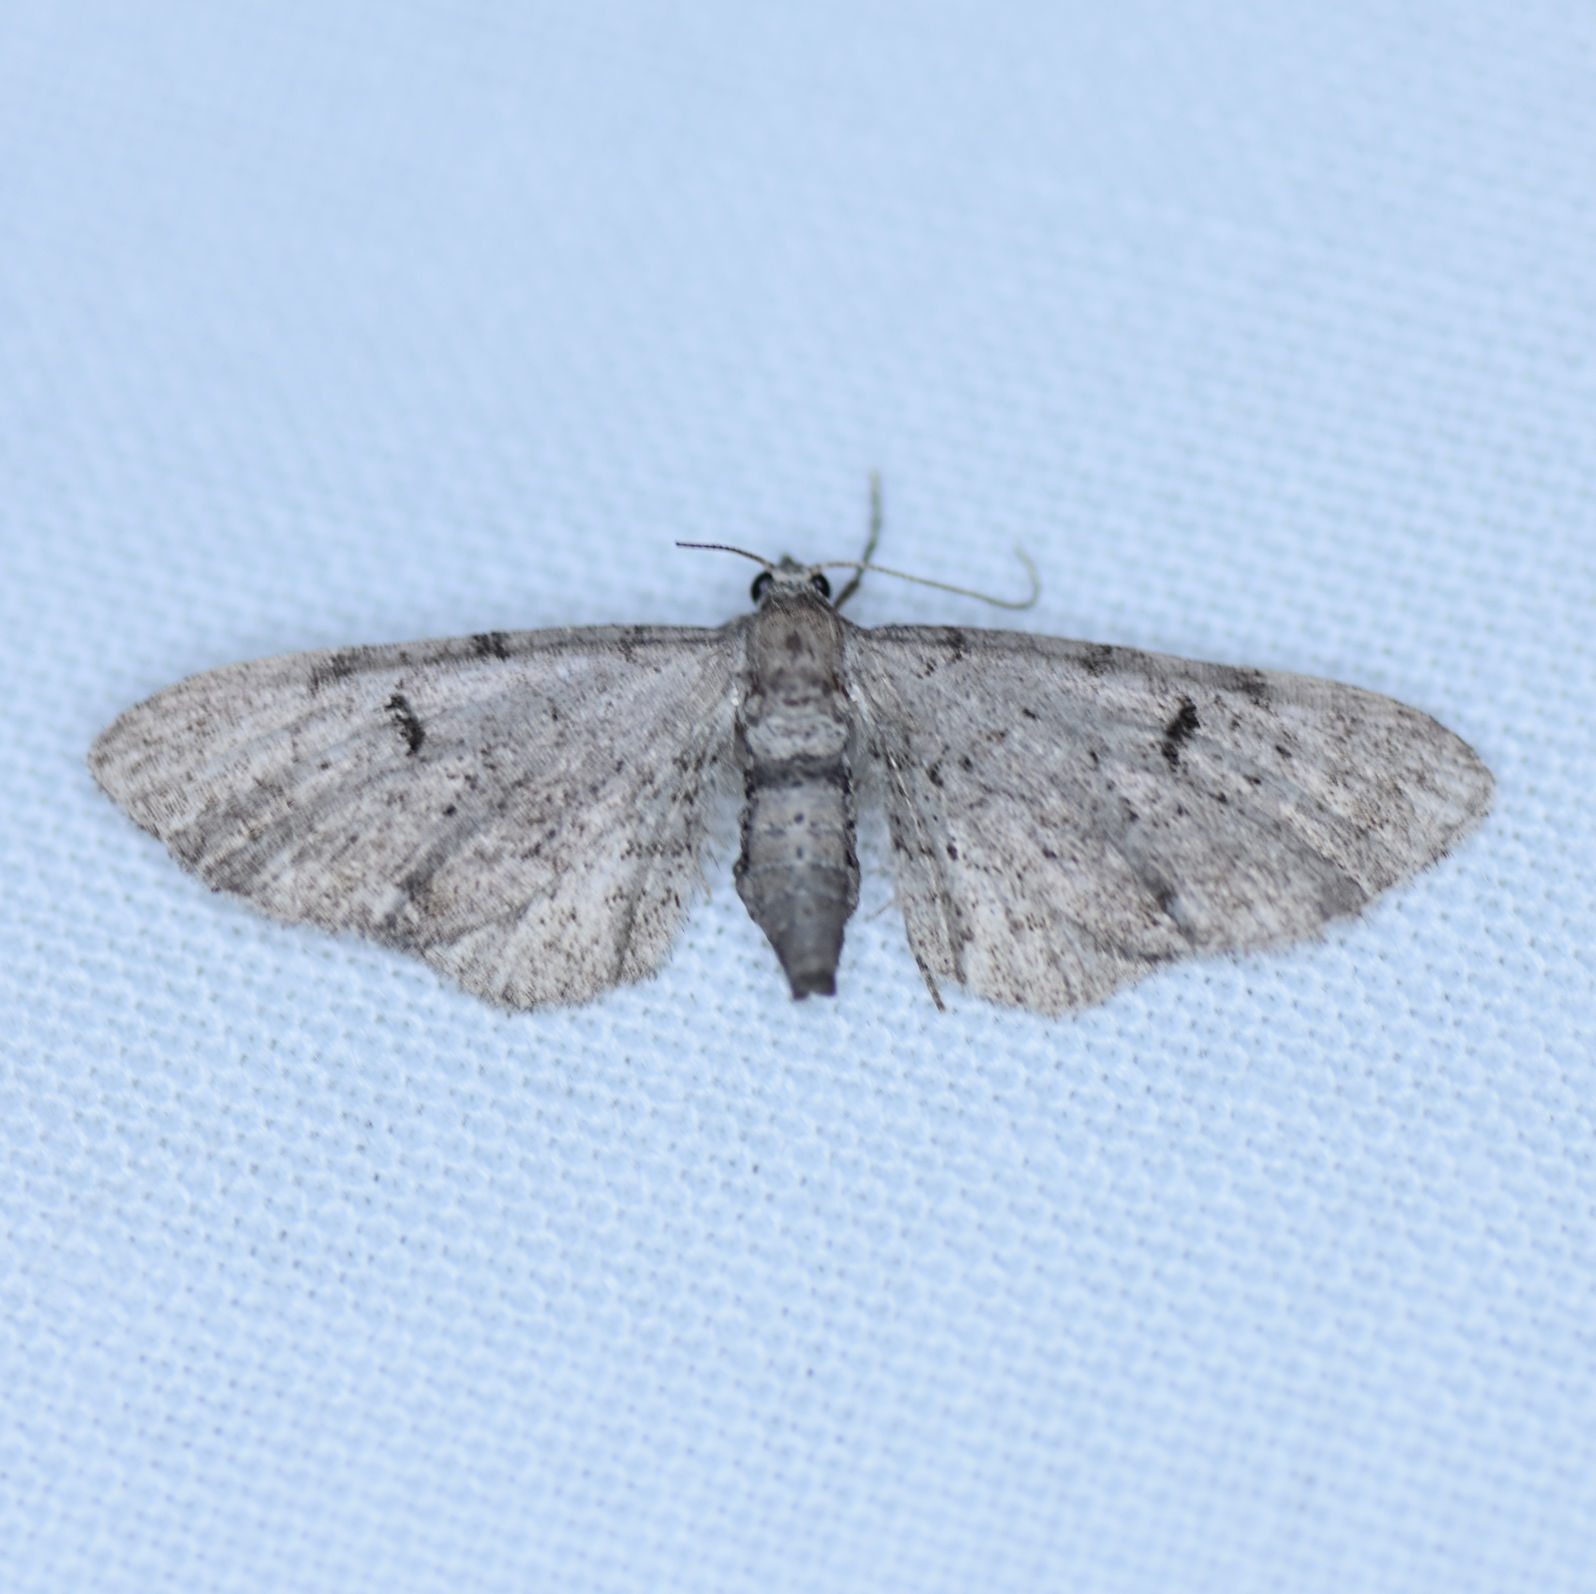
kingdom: Animalia
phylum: Arthropoda
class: Insecta
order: Lepidoptera
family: Geometridae
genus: Eupithecia
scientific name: Eupithecia absinthiata
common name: Wormwood pug
